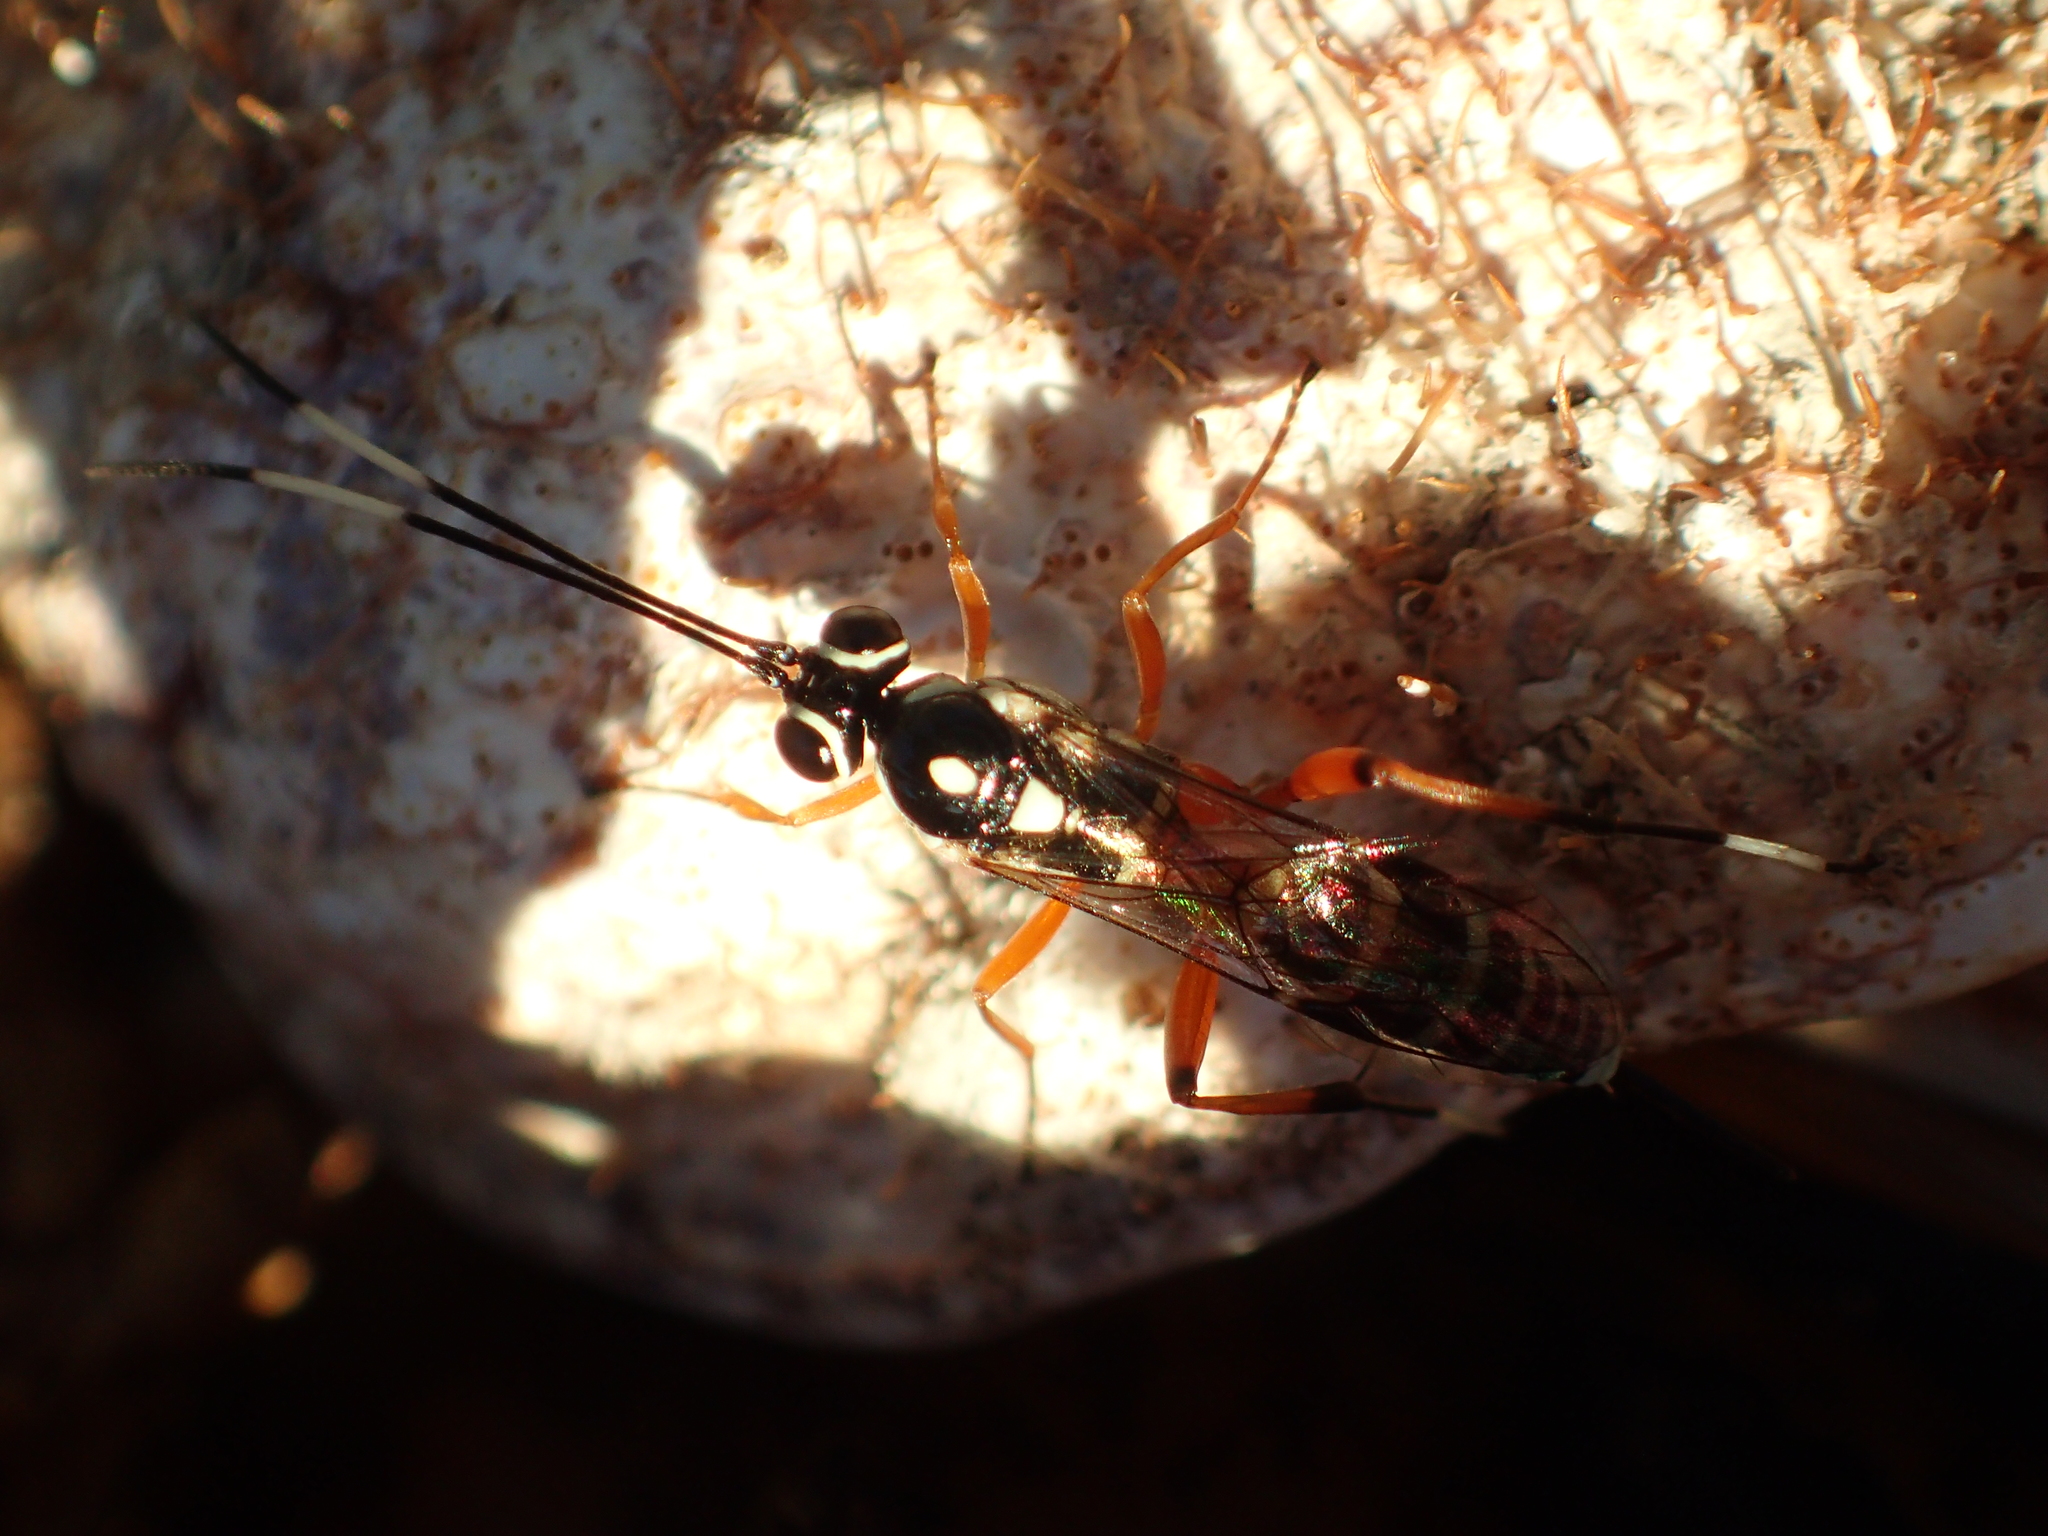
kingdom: Animalia
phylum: Arthropoda
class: Insecta
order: Hymenoptera
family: Ichneumonidae
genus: Glabridorsum
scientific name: Glabridorsum stokesii
